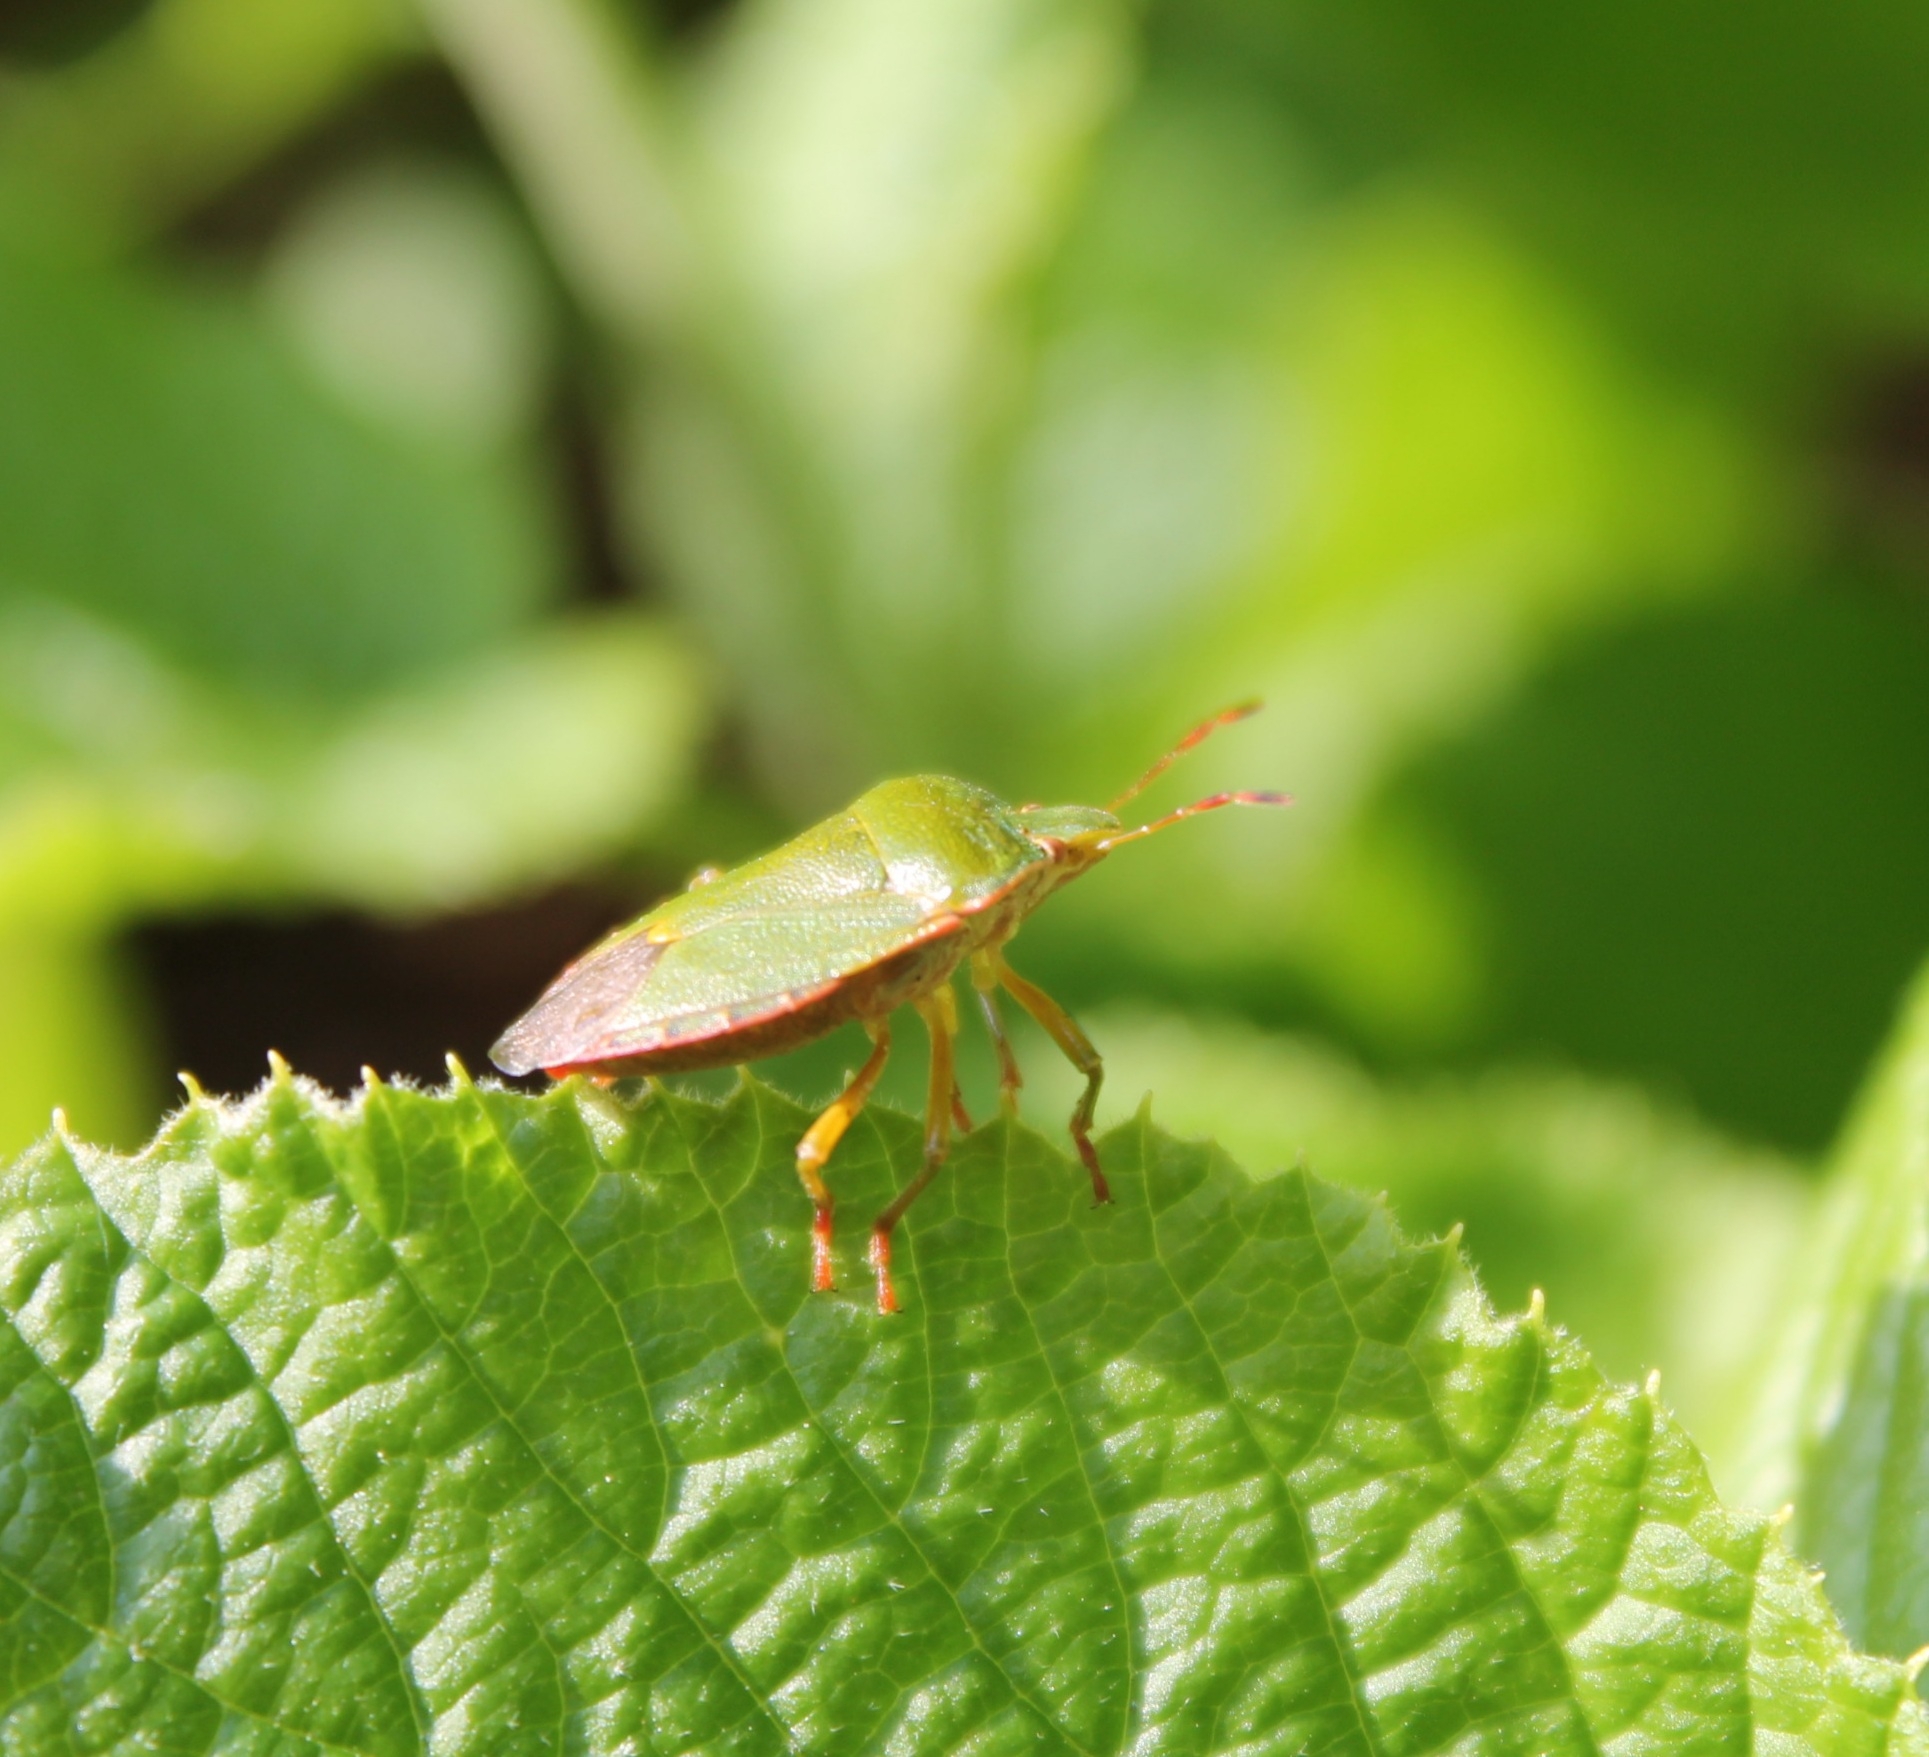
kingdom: Animalia
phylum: Arthropoda
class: Insecta
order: Hemiptera
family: Pentatomidae
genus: Palomena
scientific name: Palomena prasina
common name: Green shieldbug
